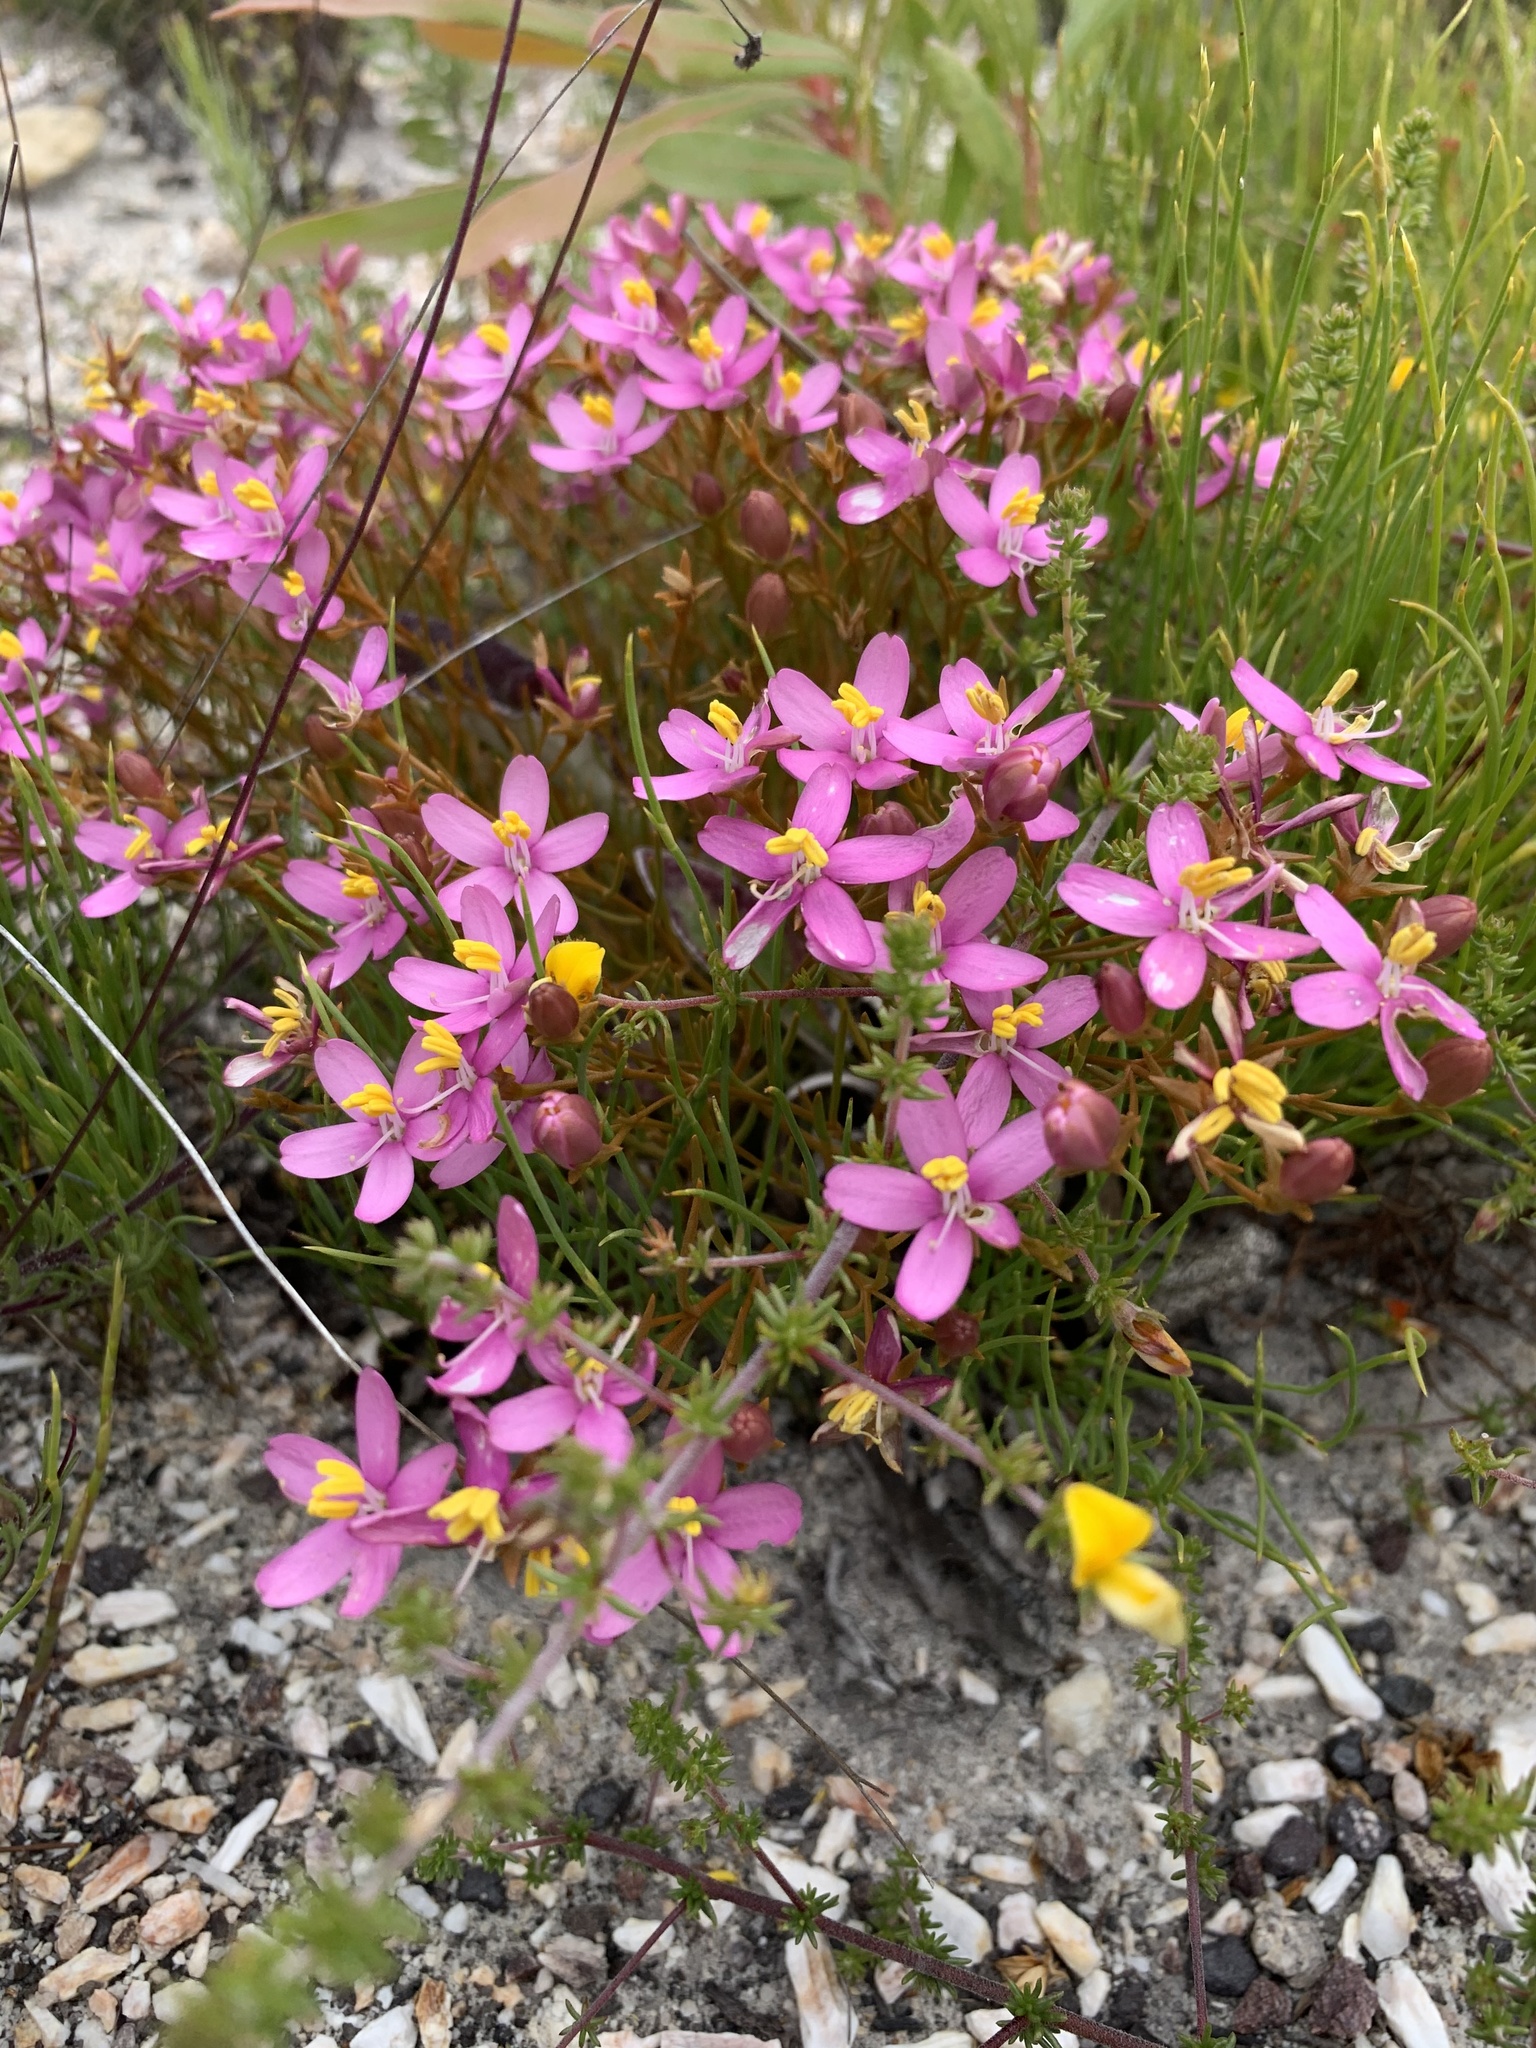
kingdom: Plantae
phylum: Tracheophyta
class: Magnoliopsida
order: Gentianales
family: Gentianaceae
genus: Chironia
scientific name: Chironia baccifera
